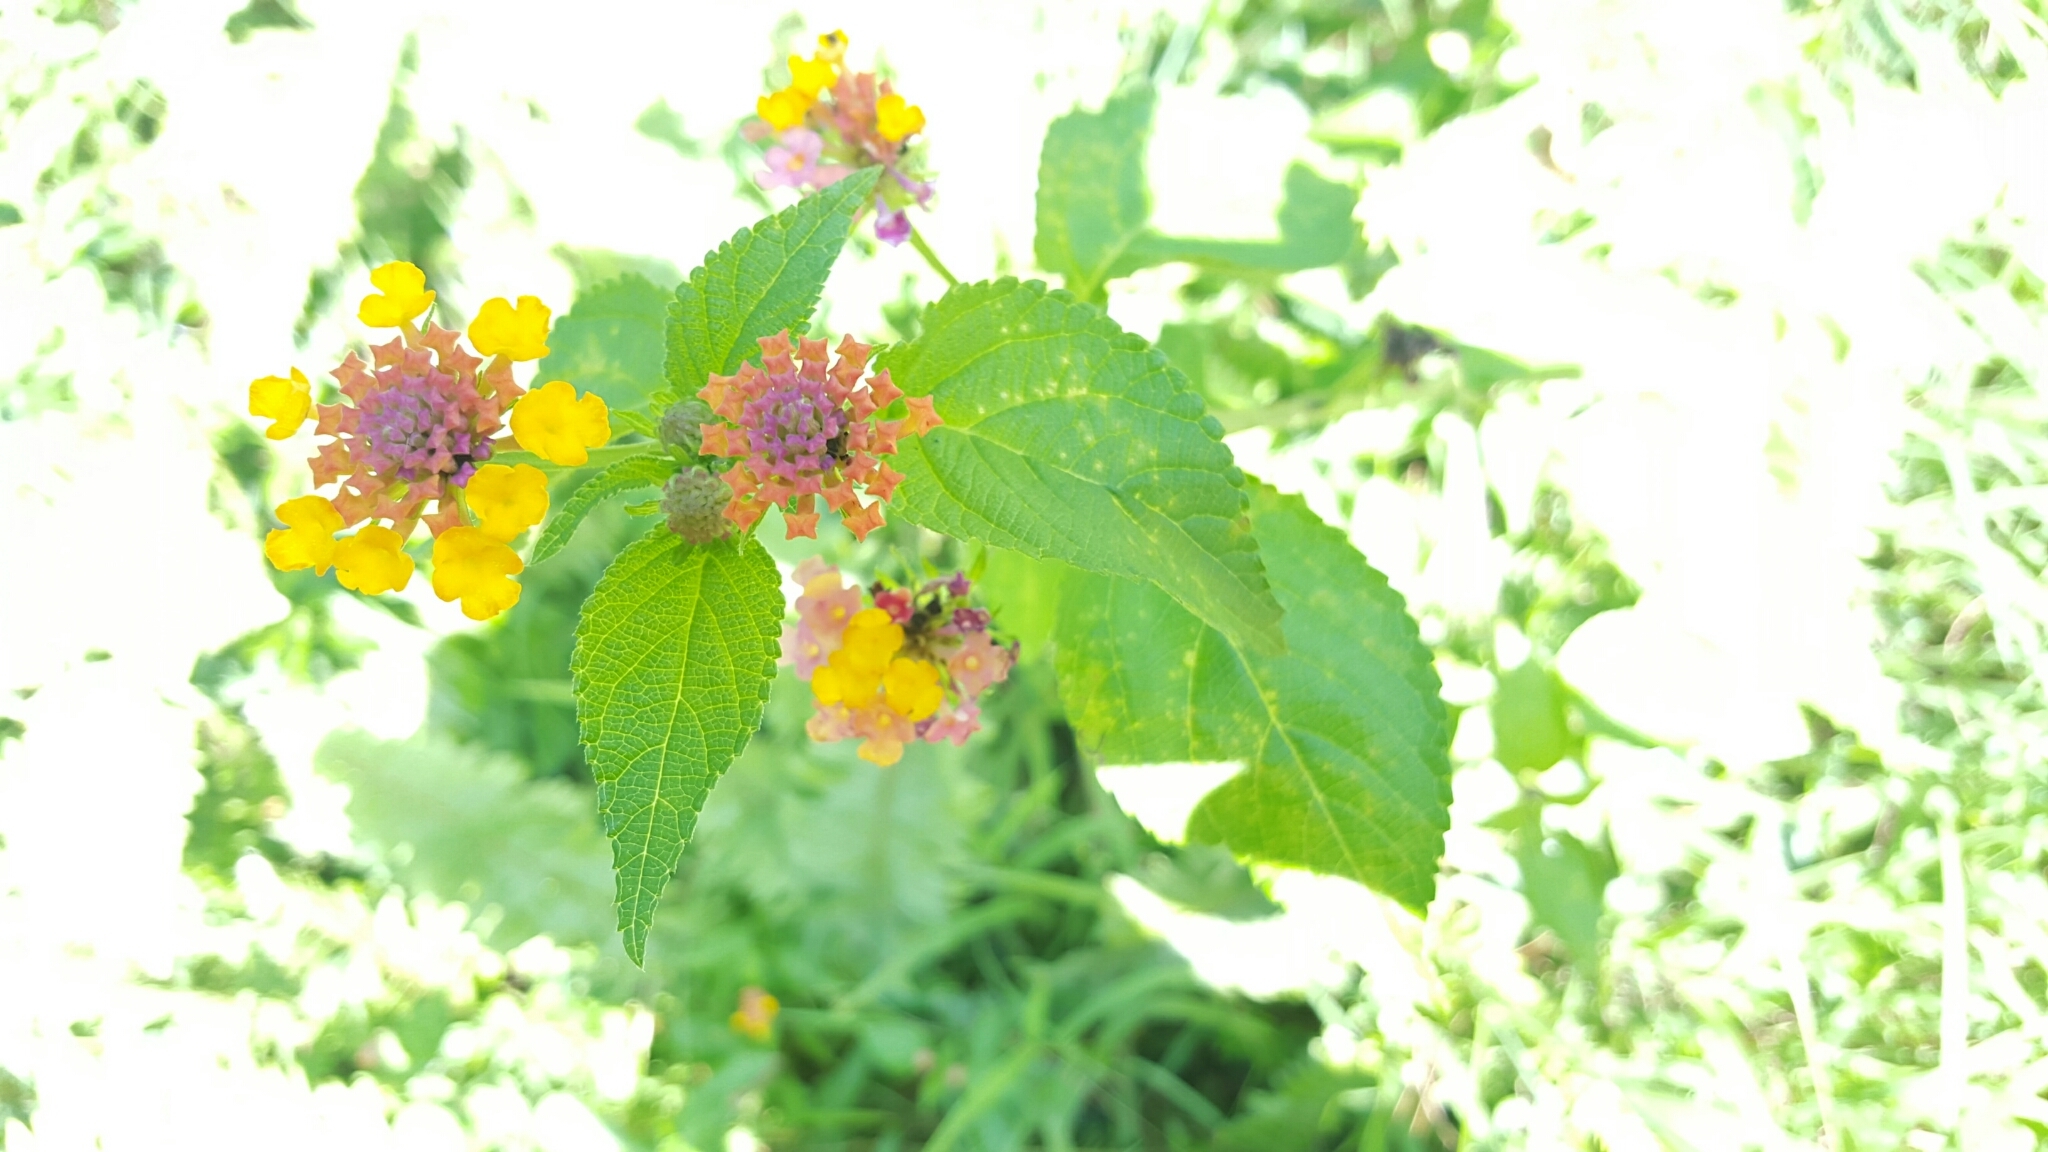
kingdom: Plantae
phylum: Tracheophyta
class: Magnoliopsida
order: Lamiales
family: Verbenaceae
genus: Lantana
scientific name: Lantana camara
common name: Lantana
